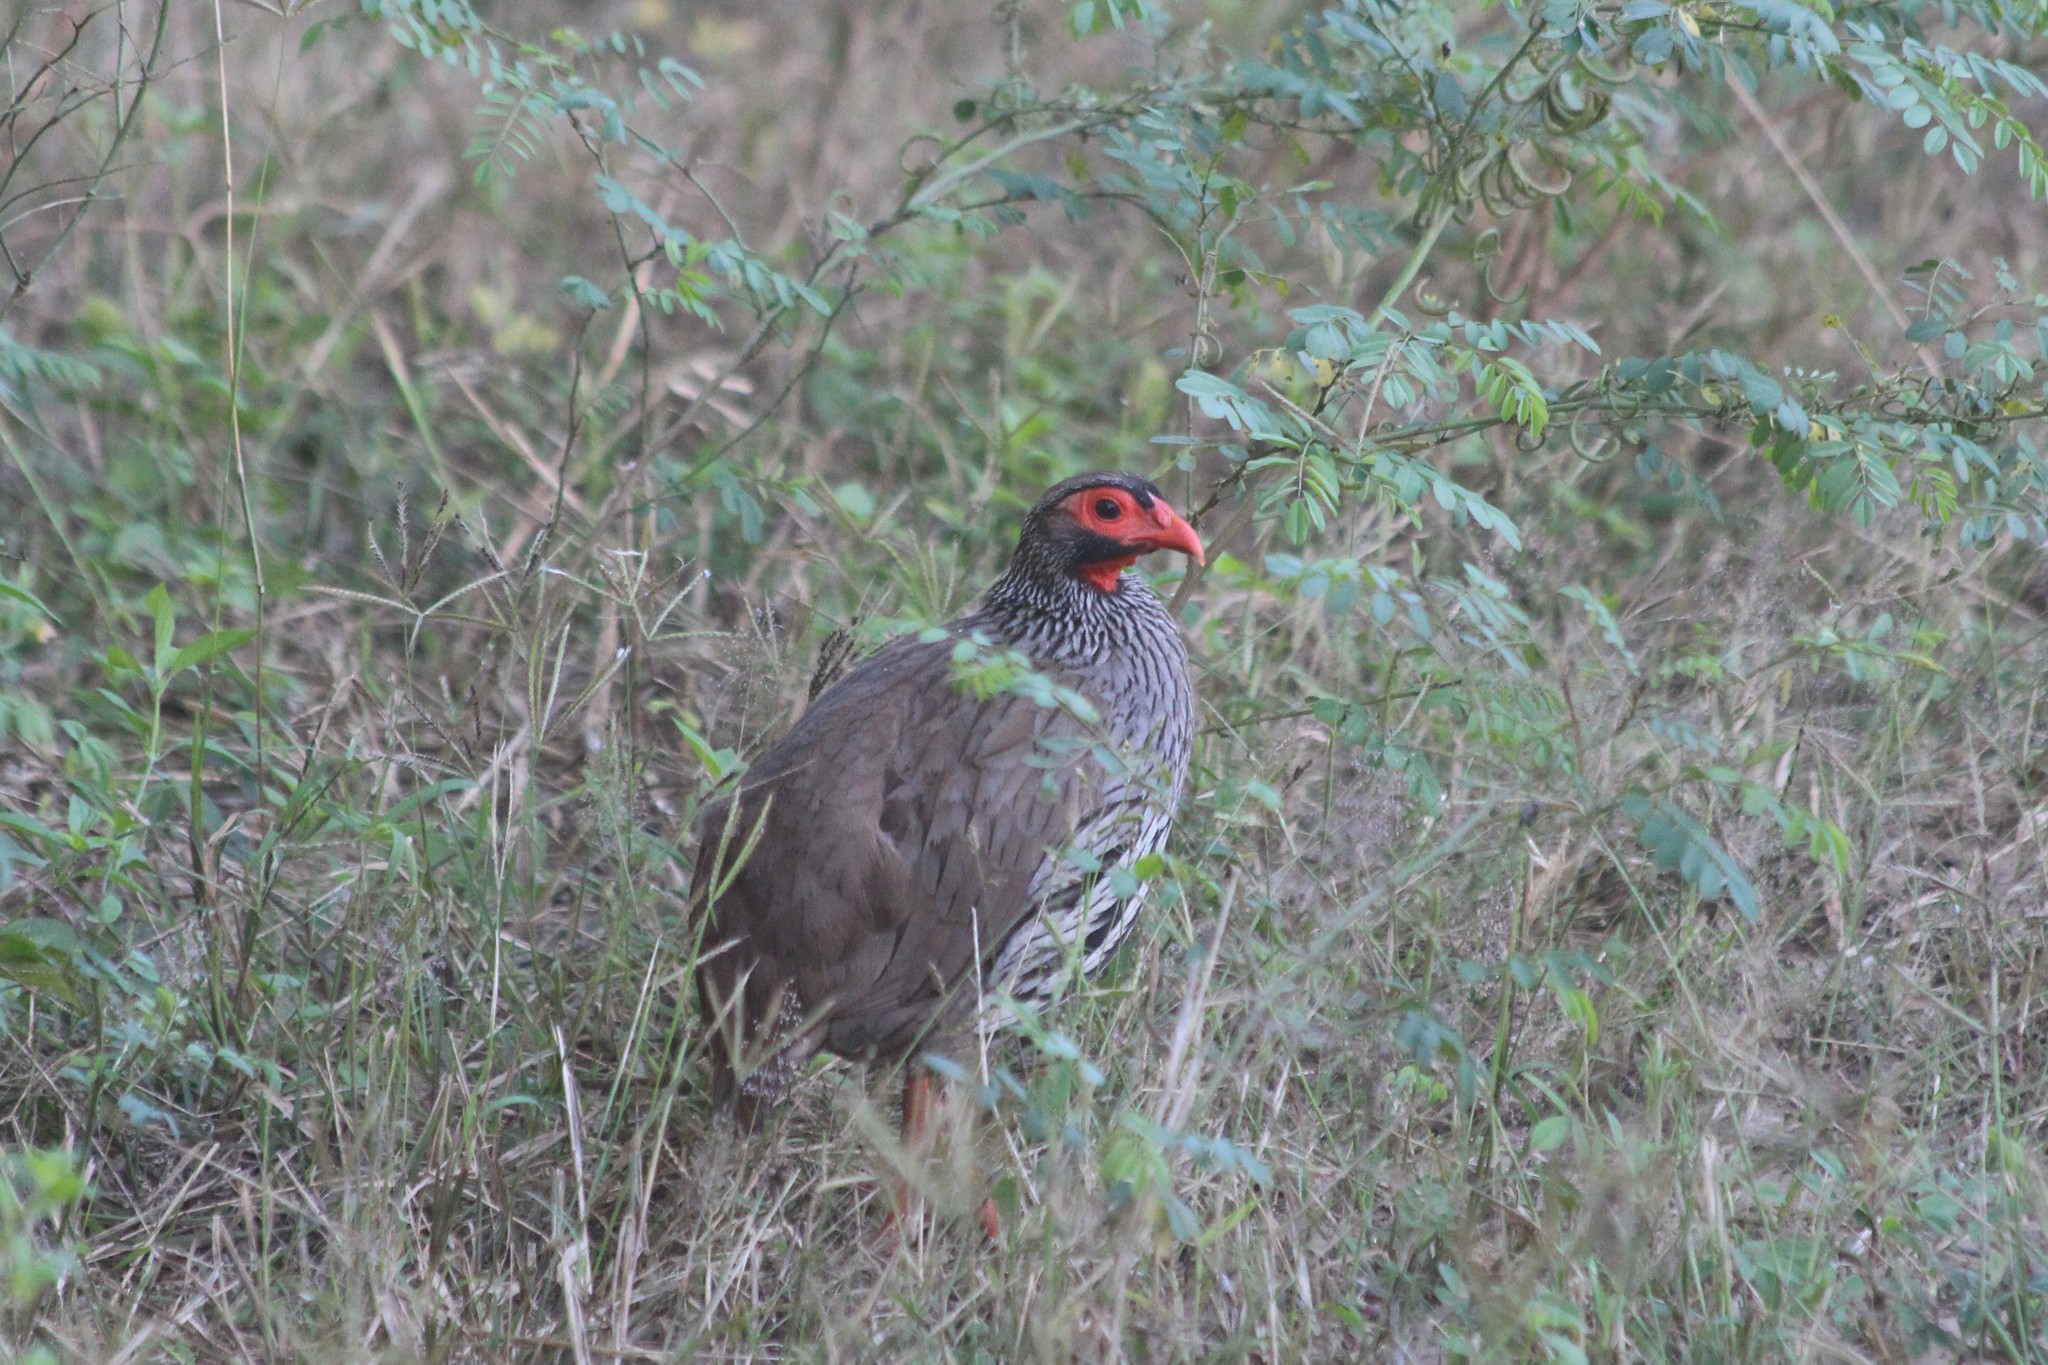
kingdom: Animalia
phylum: Chordata
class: Aves
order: Galliformes
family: Phasianidae
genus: Pternistis
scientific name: Pternistis afer
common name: Red-necked spurfowl
